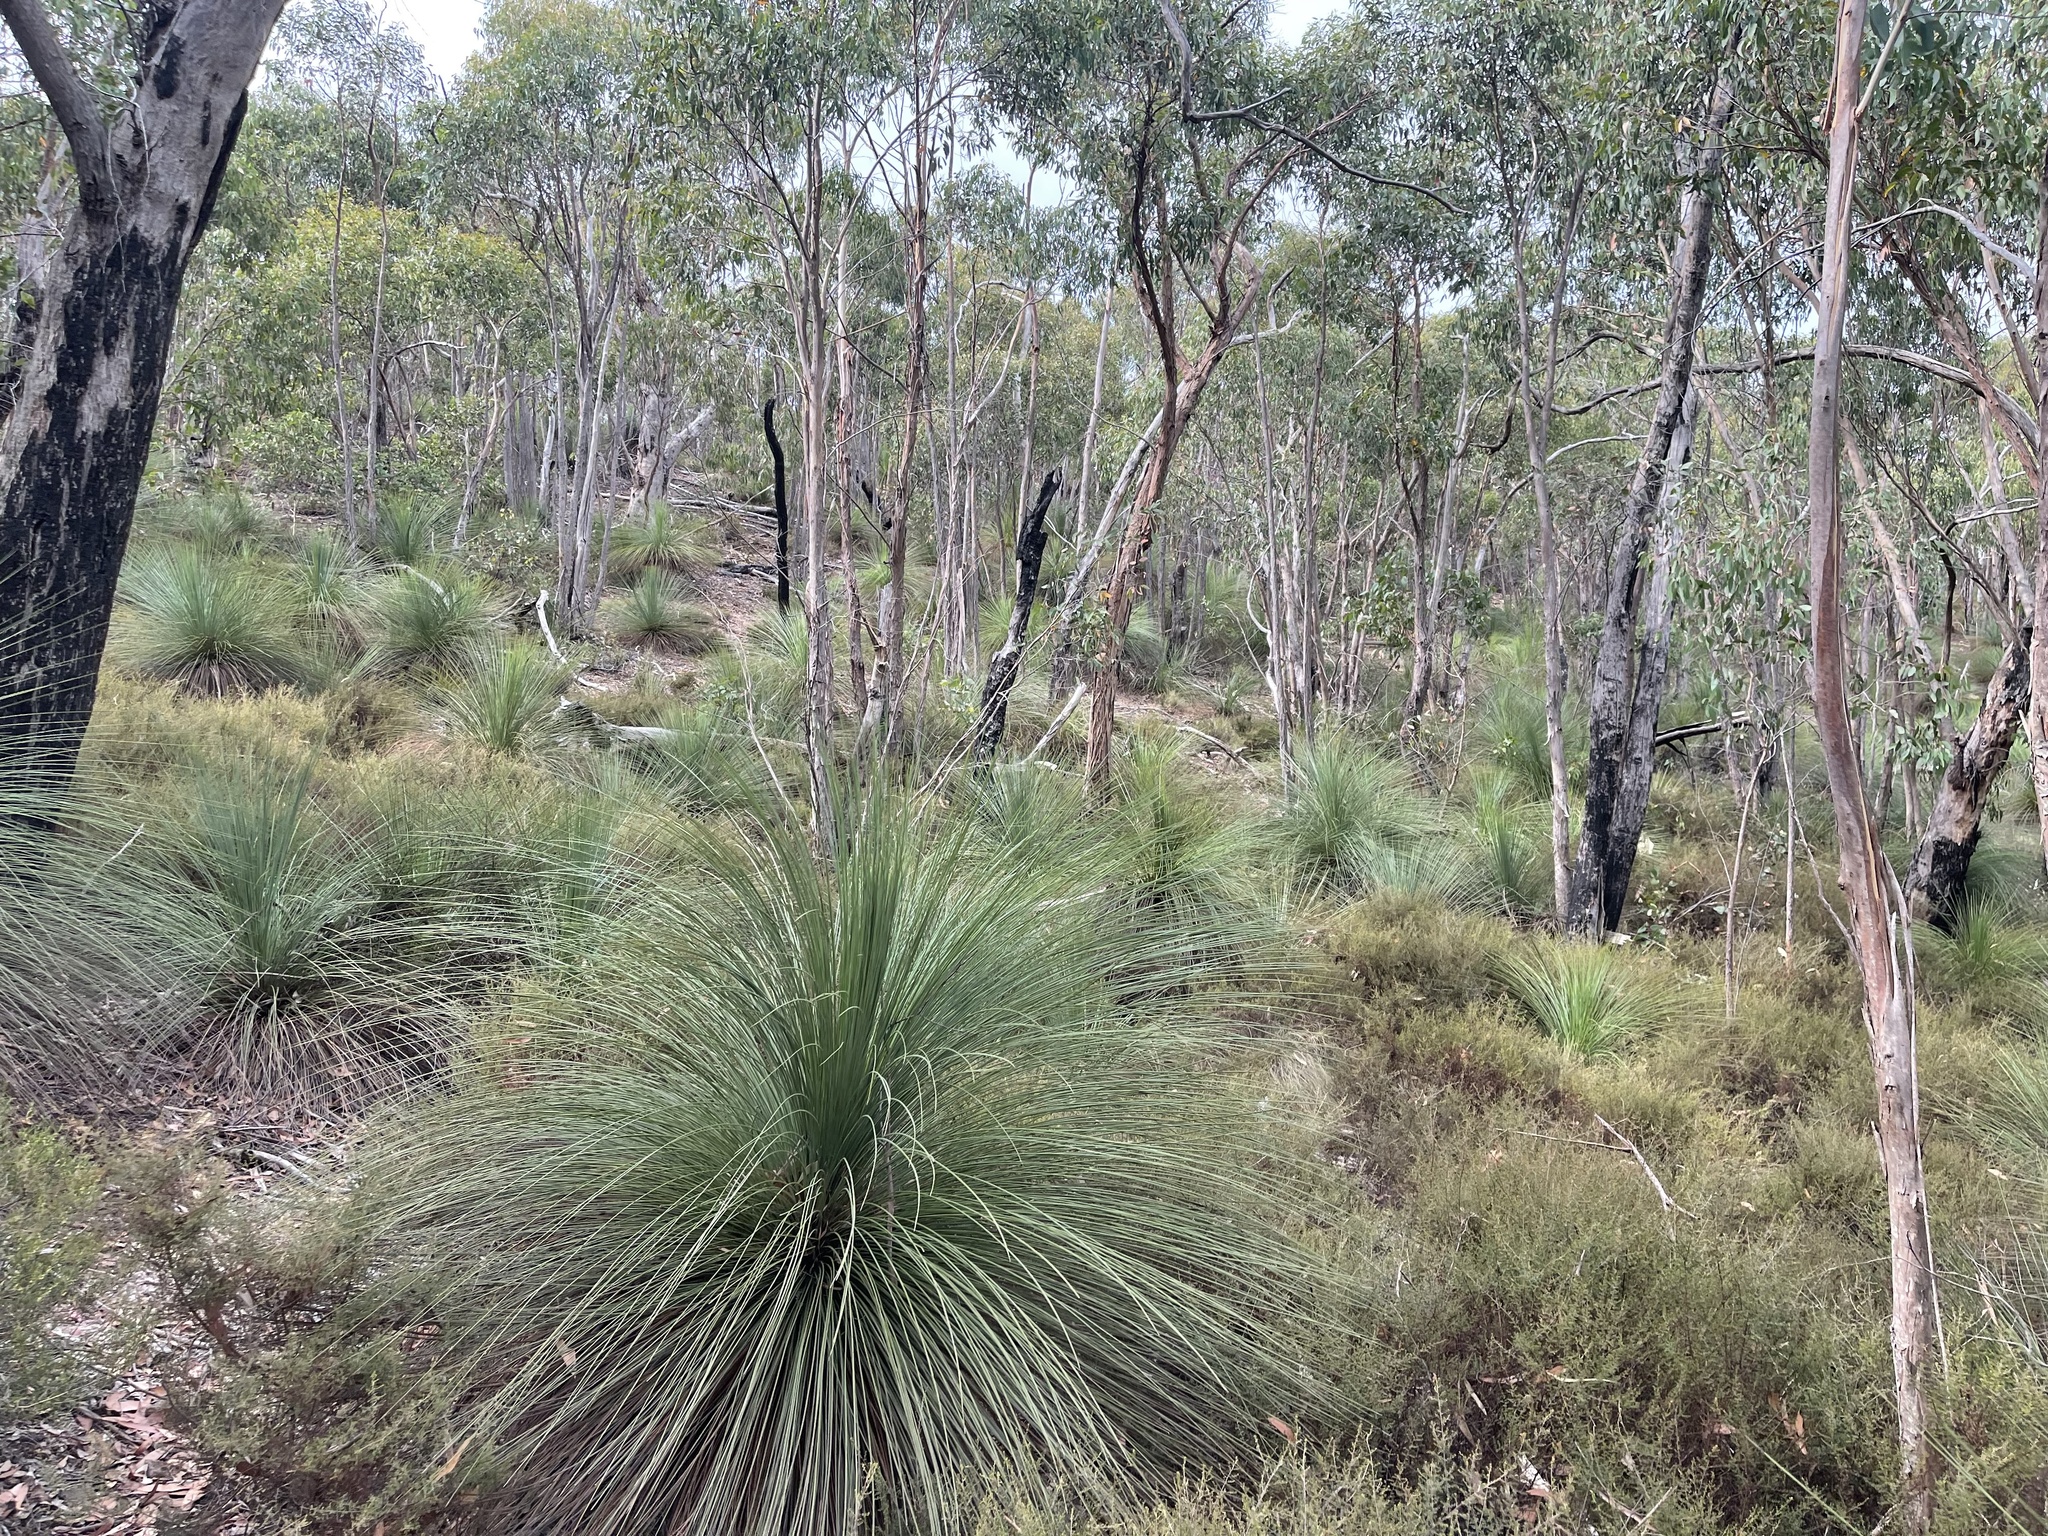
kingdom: Plantae
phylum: Tracheophyta
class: Liliopsida
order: Asparagales
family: Asphodelaceae
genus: Xanthorrhoea
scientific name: Xanthorrhoea australis
